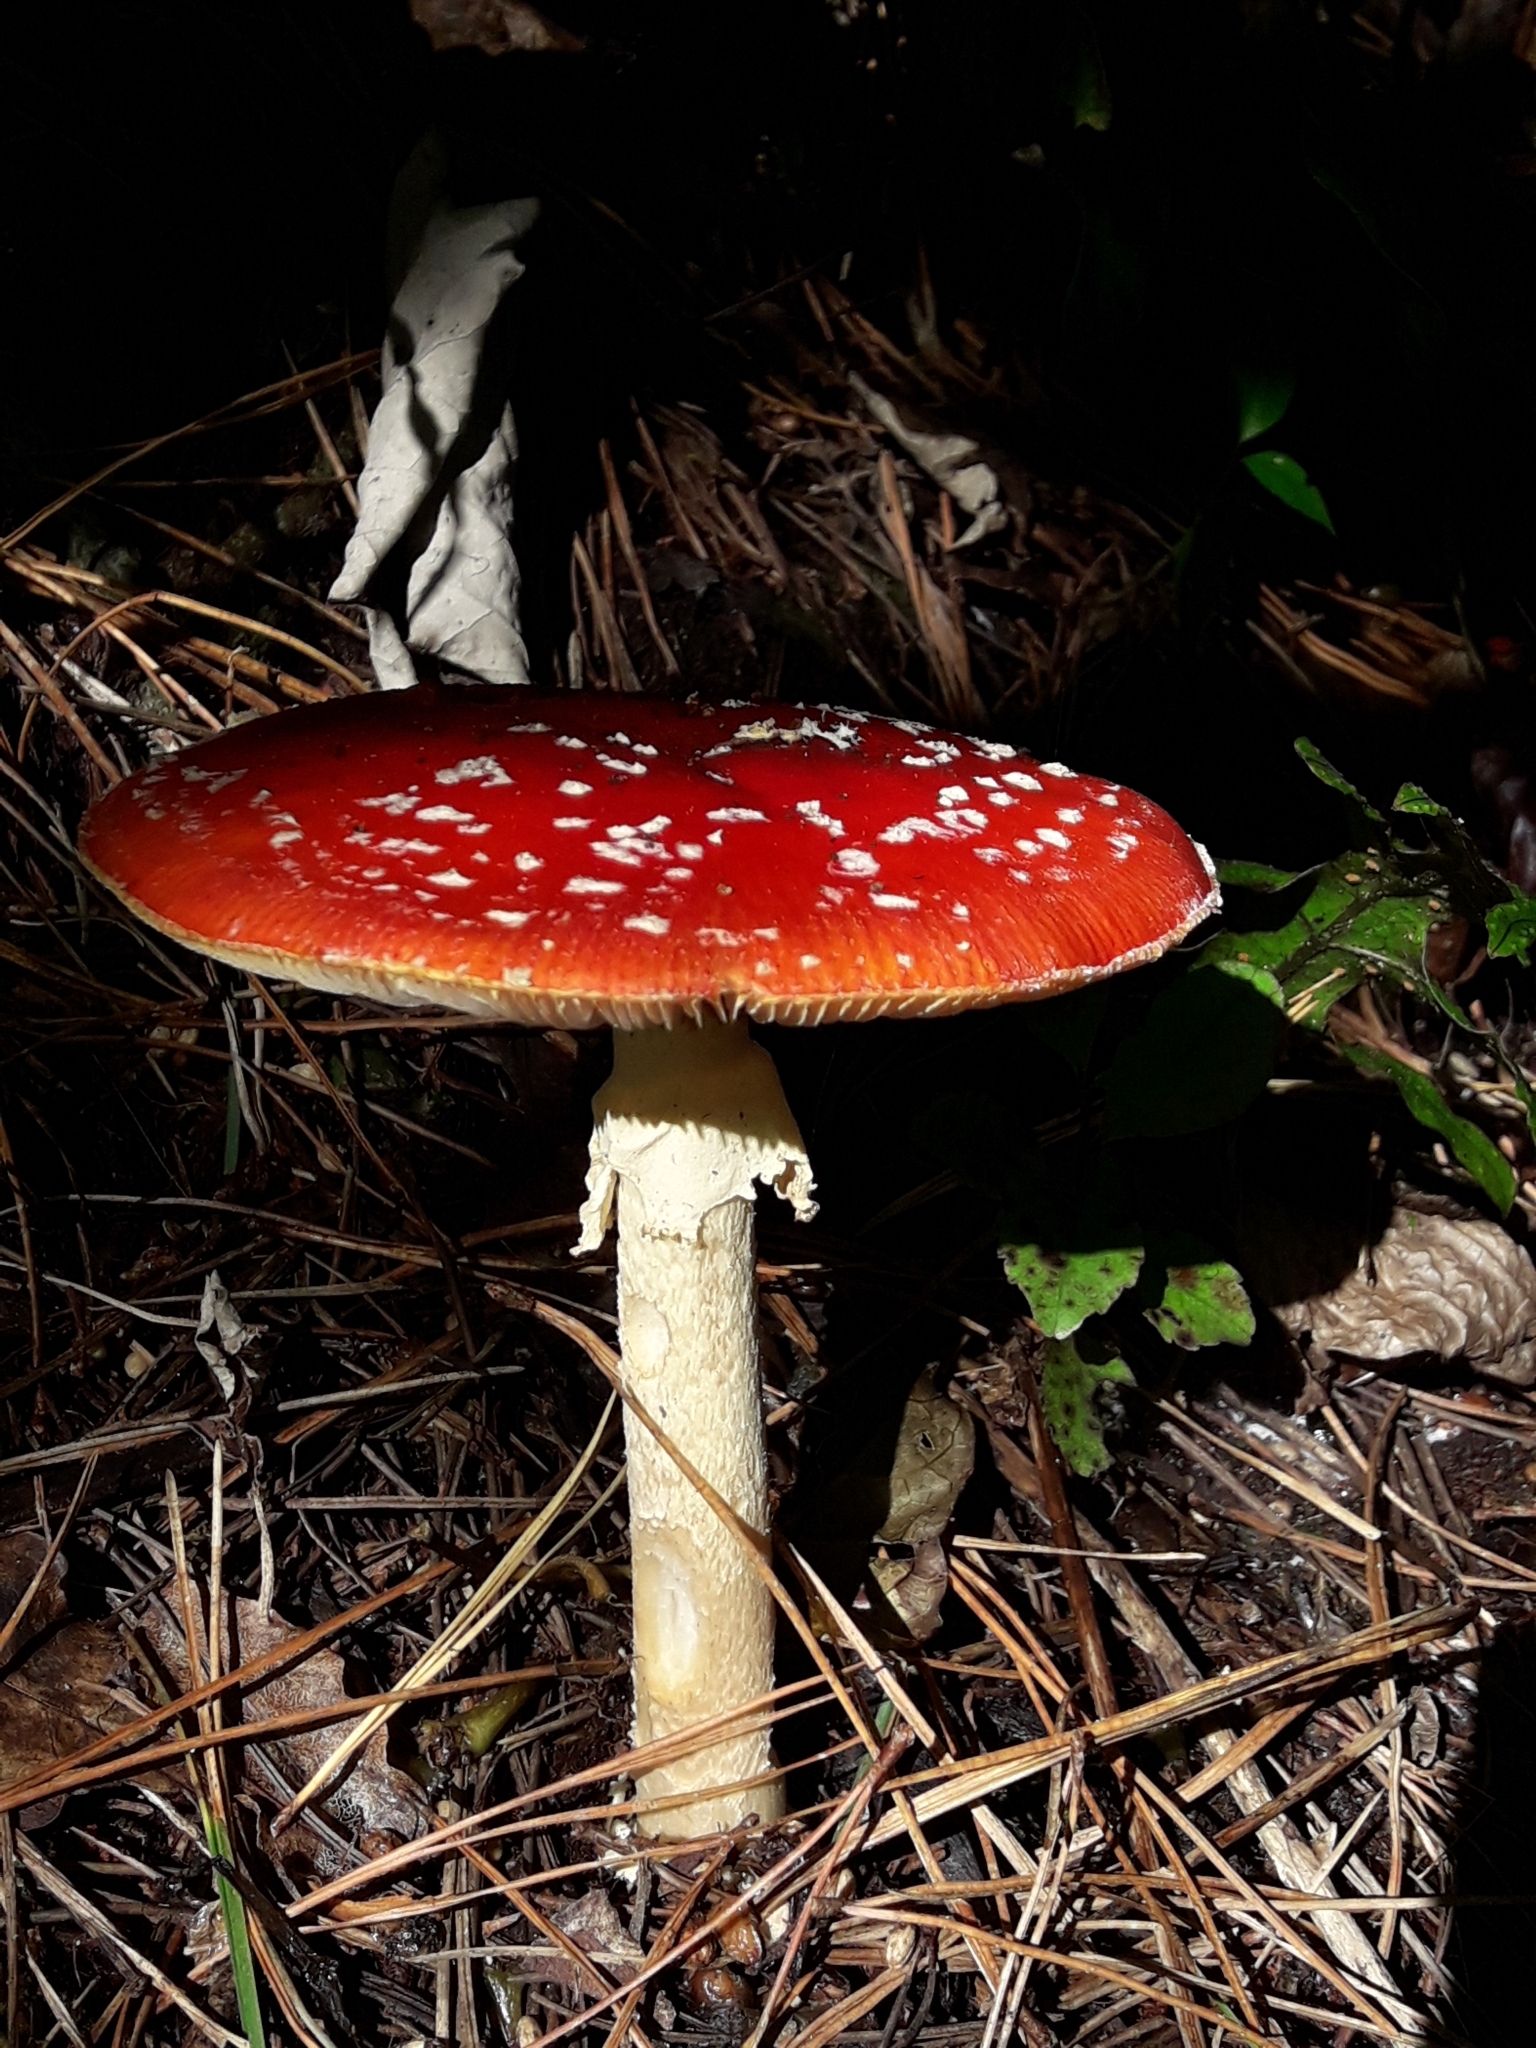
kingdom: Fungi
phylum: Basidiomycota
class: Agaricomycetes
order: Agaricales
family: Amanitaceae
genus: Amanita
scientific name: Amanita muscaria
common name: Fly agaric
